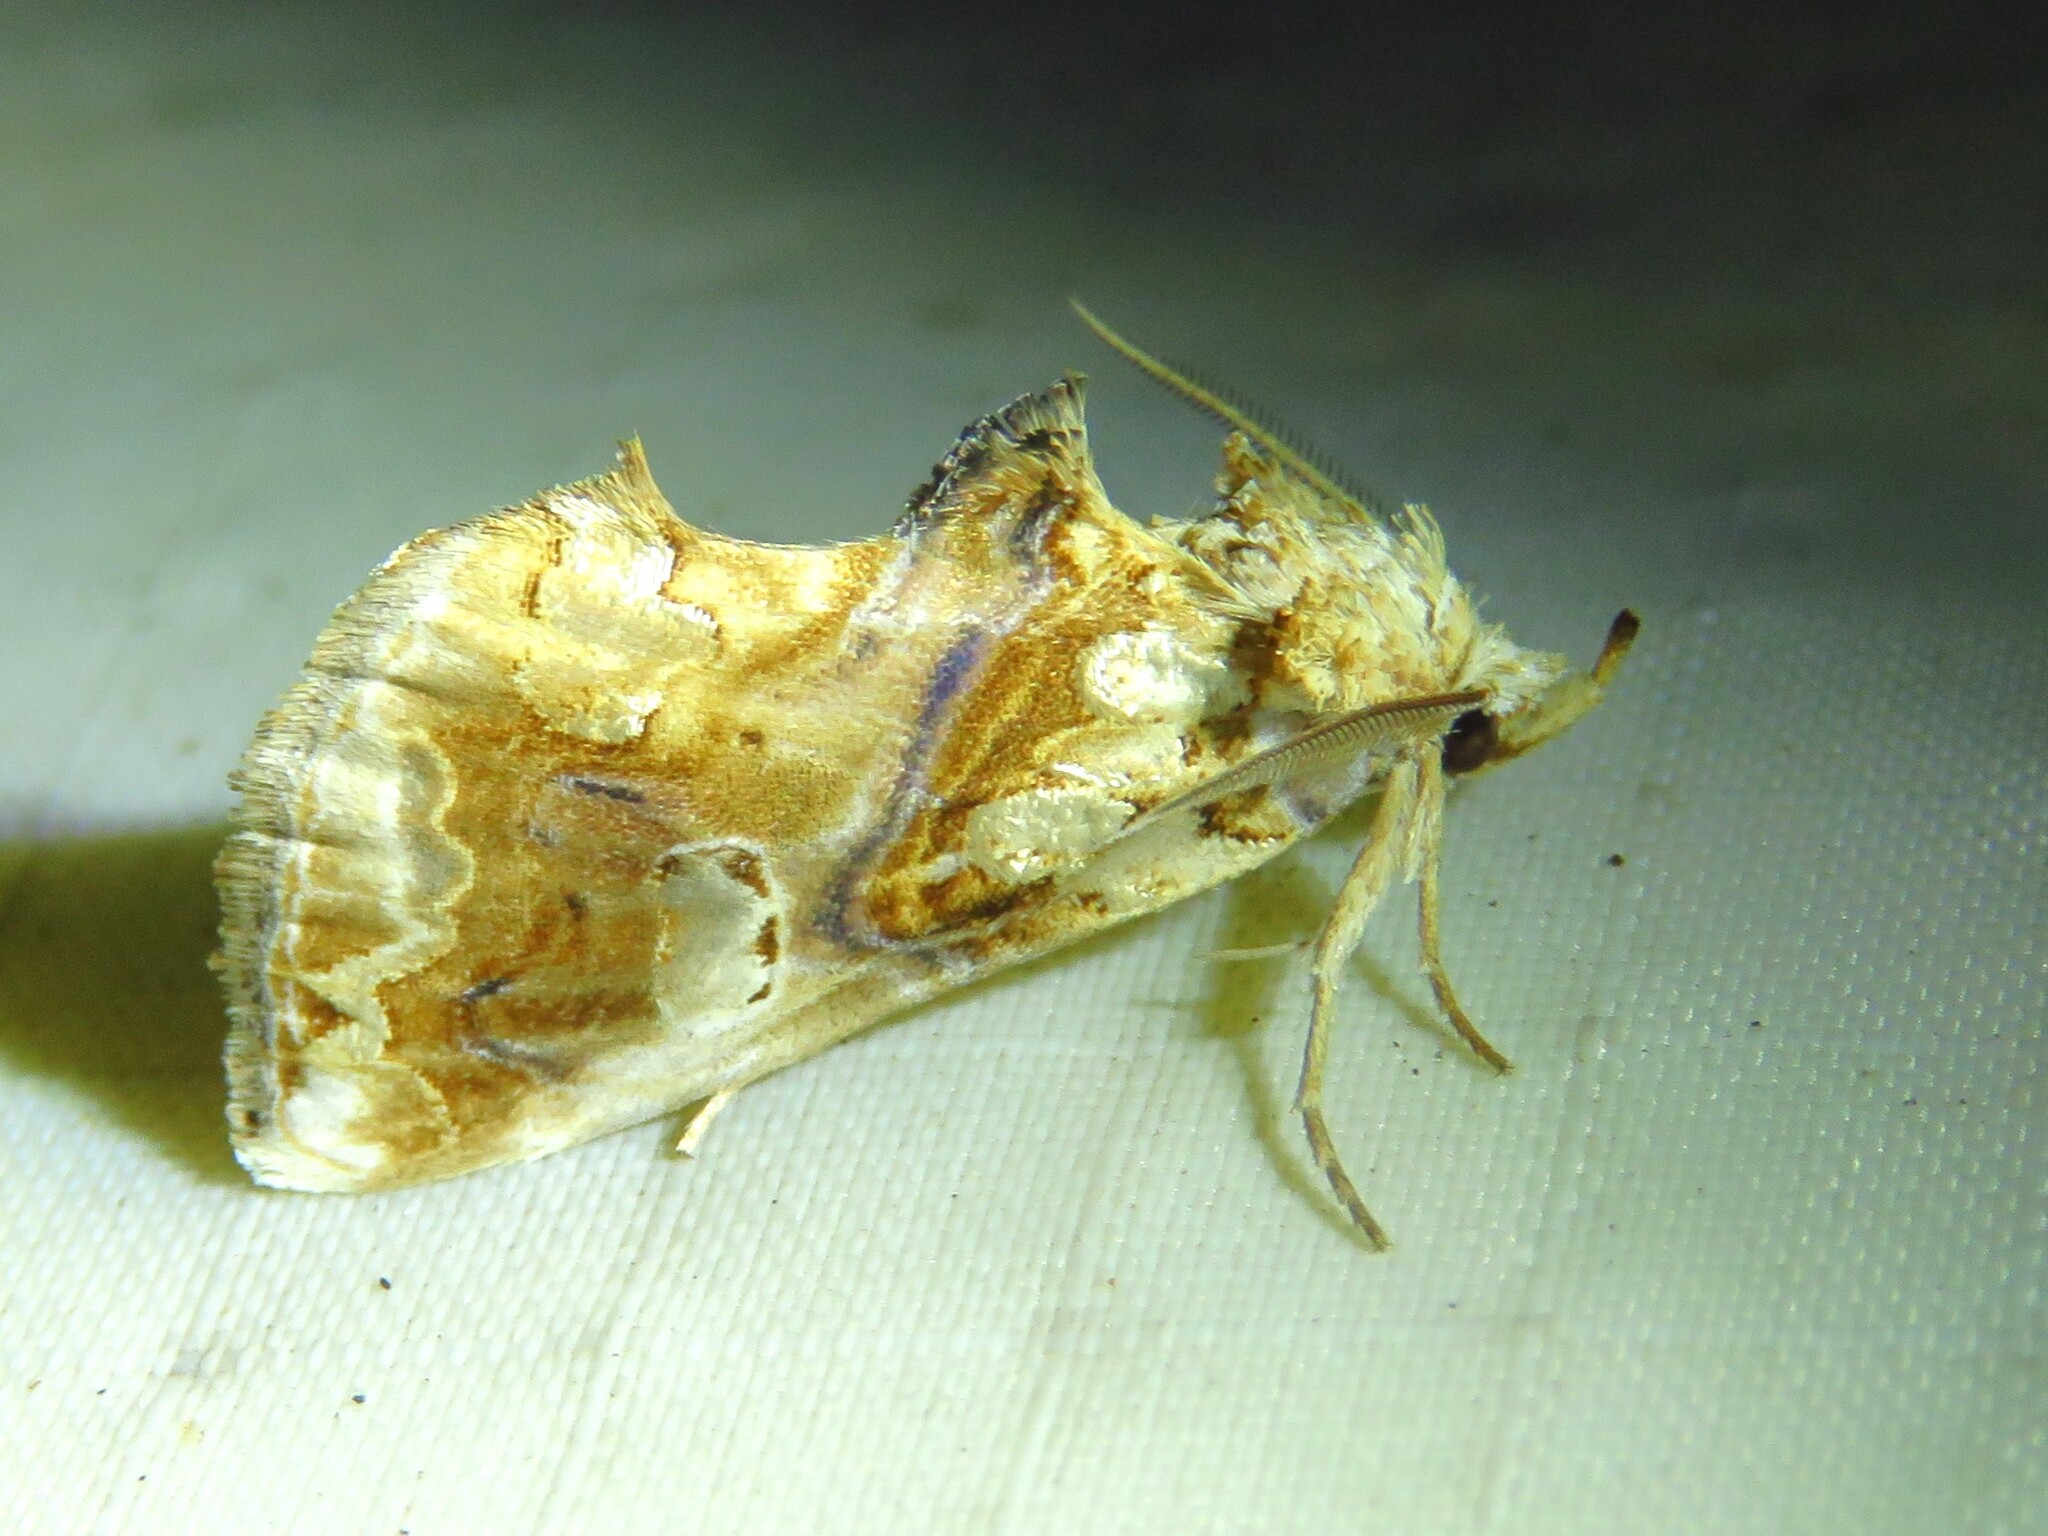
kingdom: Animalia
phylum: Arthropoda
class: Insecta
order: Lepidoptera
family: Erebidae
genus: Plusiodonta
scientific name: Plusiodonta compressipalpis
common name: Moonseed moth
